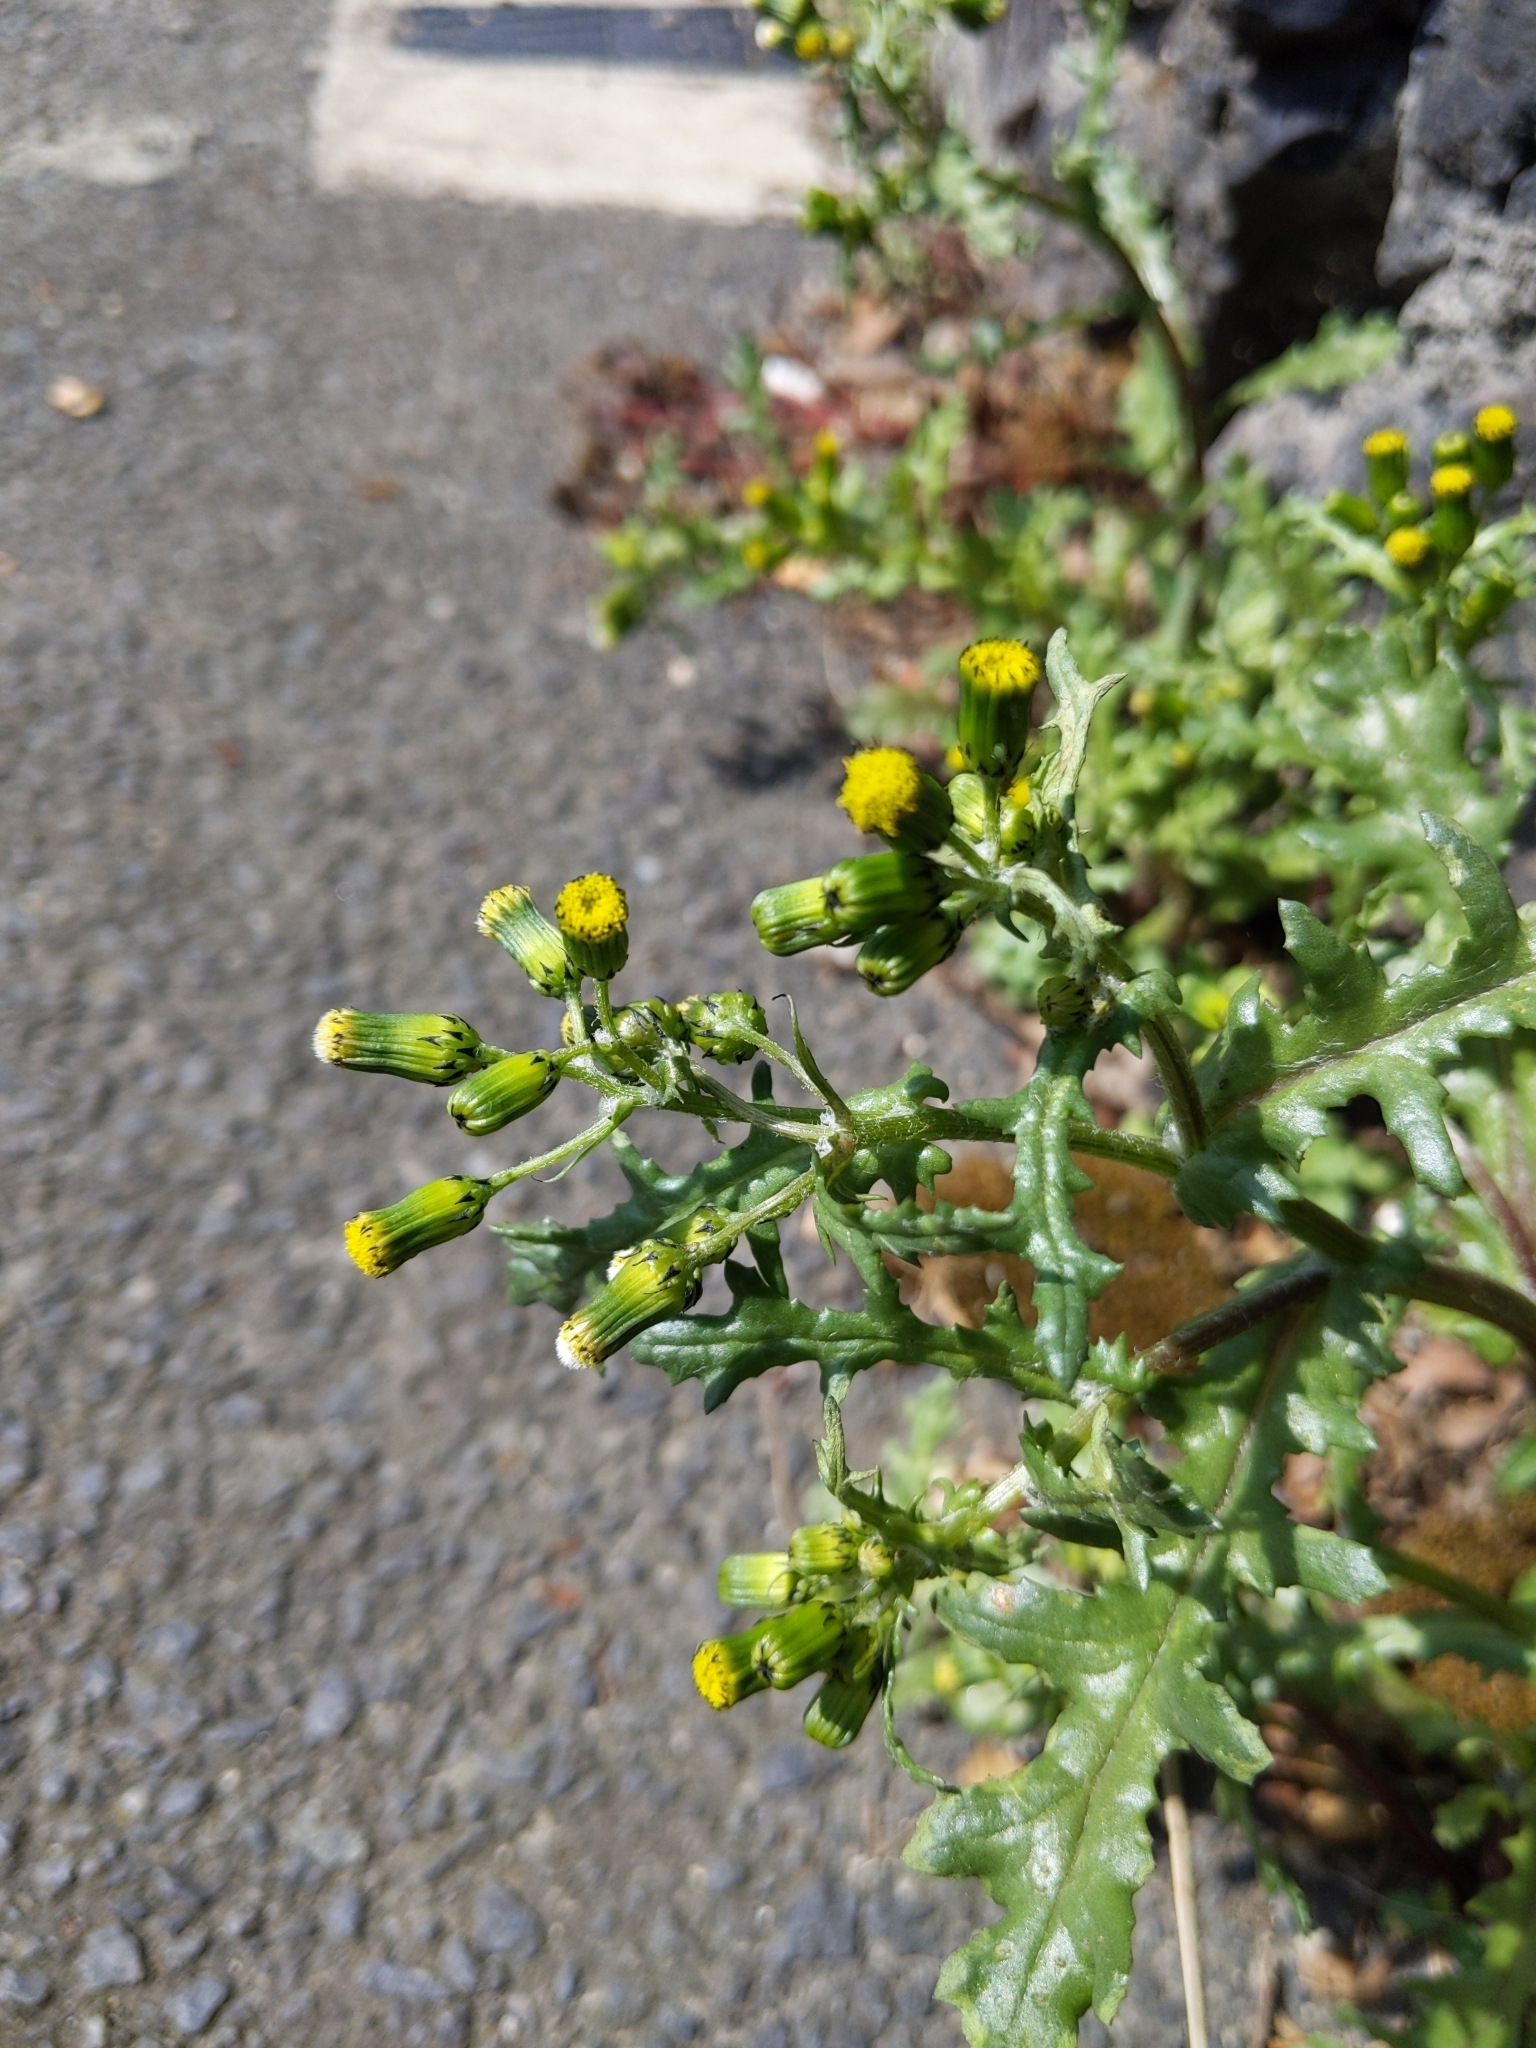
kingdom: Plantae
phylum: Tracheophyta
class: Magnoliopsida
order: Asterales
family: Asteraceae
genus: Senecio
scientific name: Senecio vulgaris
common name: Old-man-in-the-spring
